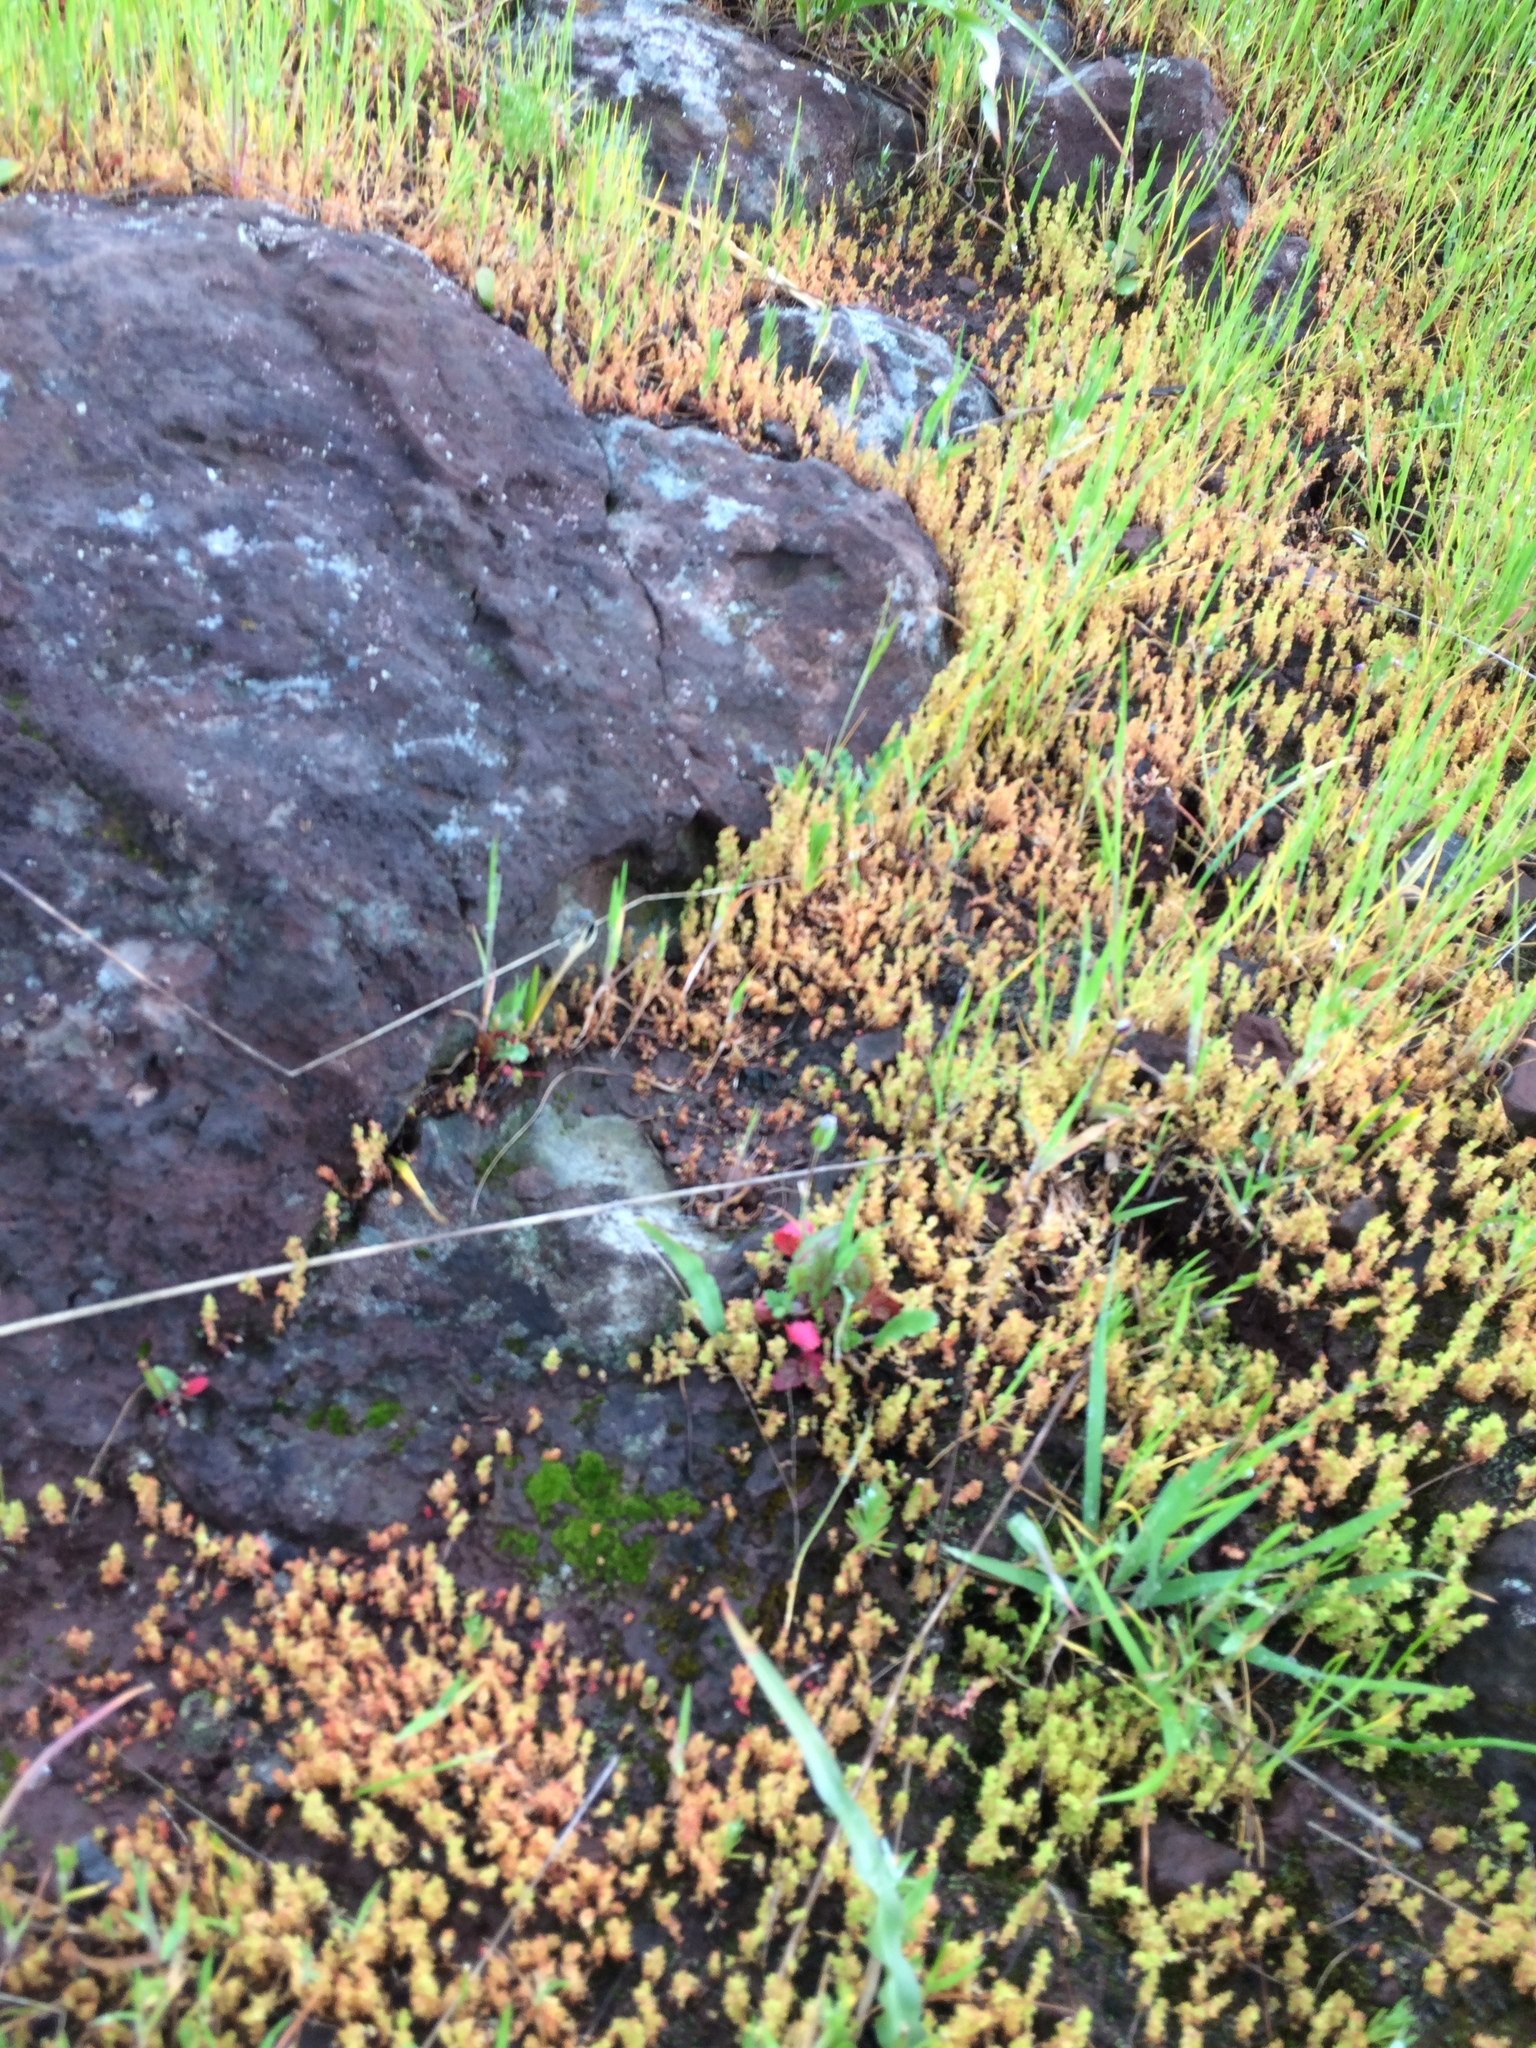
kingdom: Plantae
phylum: Tracheophyta
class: Magnoliopsida
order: Saxifragales
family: Crassulaceae
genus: Crassula
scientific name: Crassula connata
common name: Erect pygmyweed
